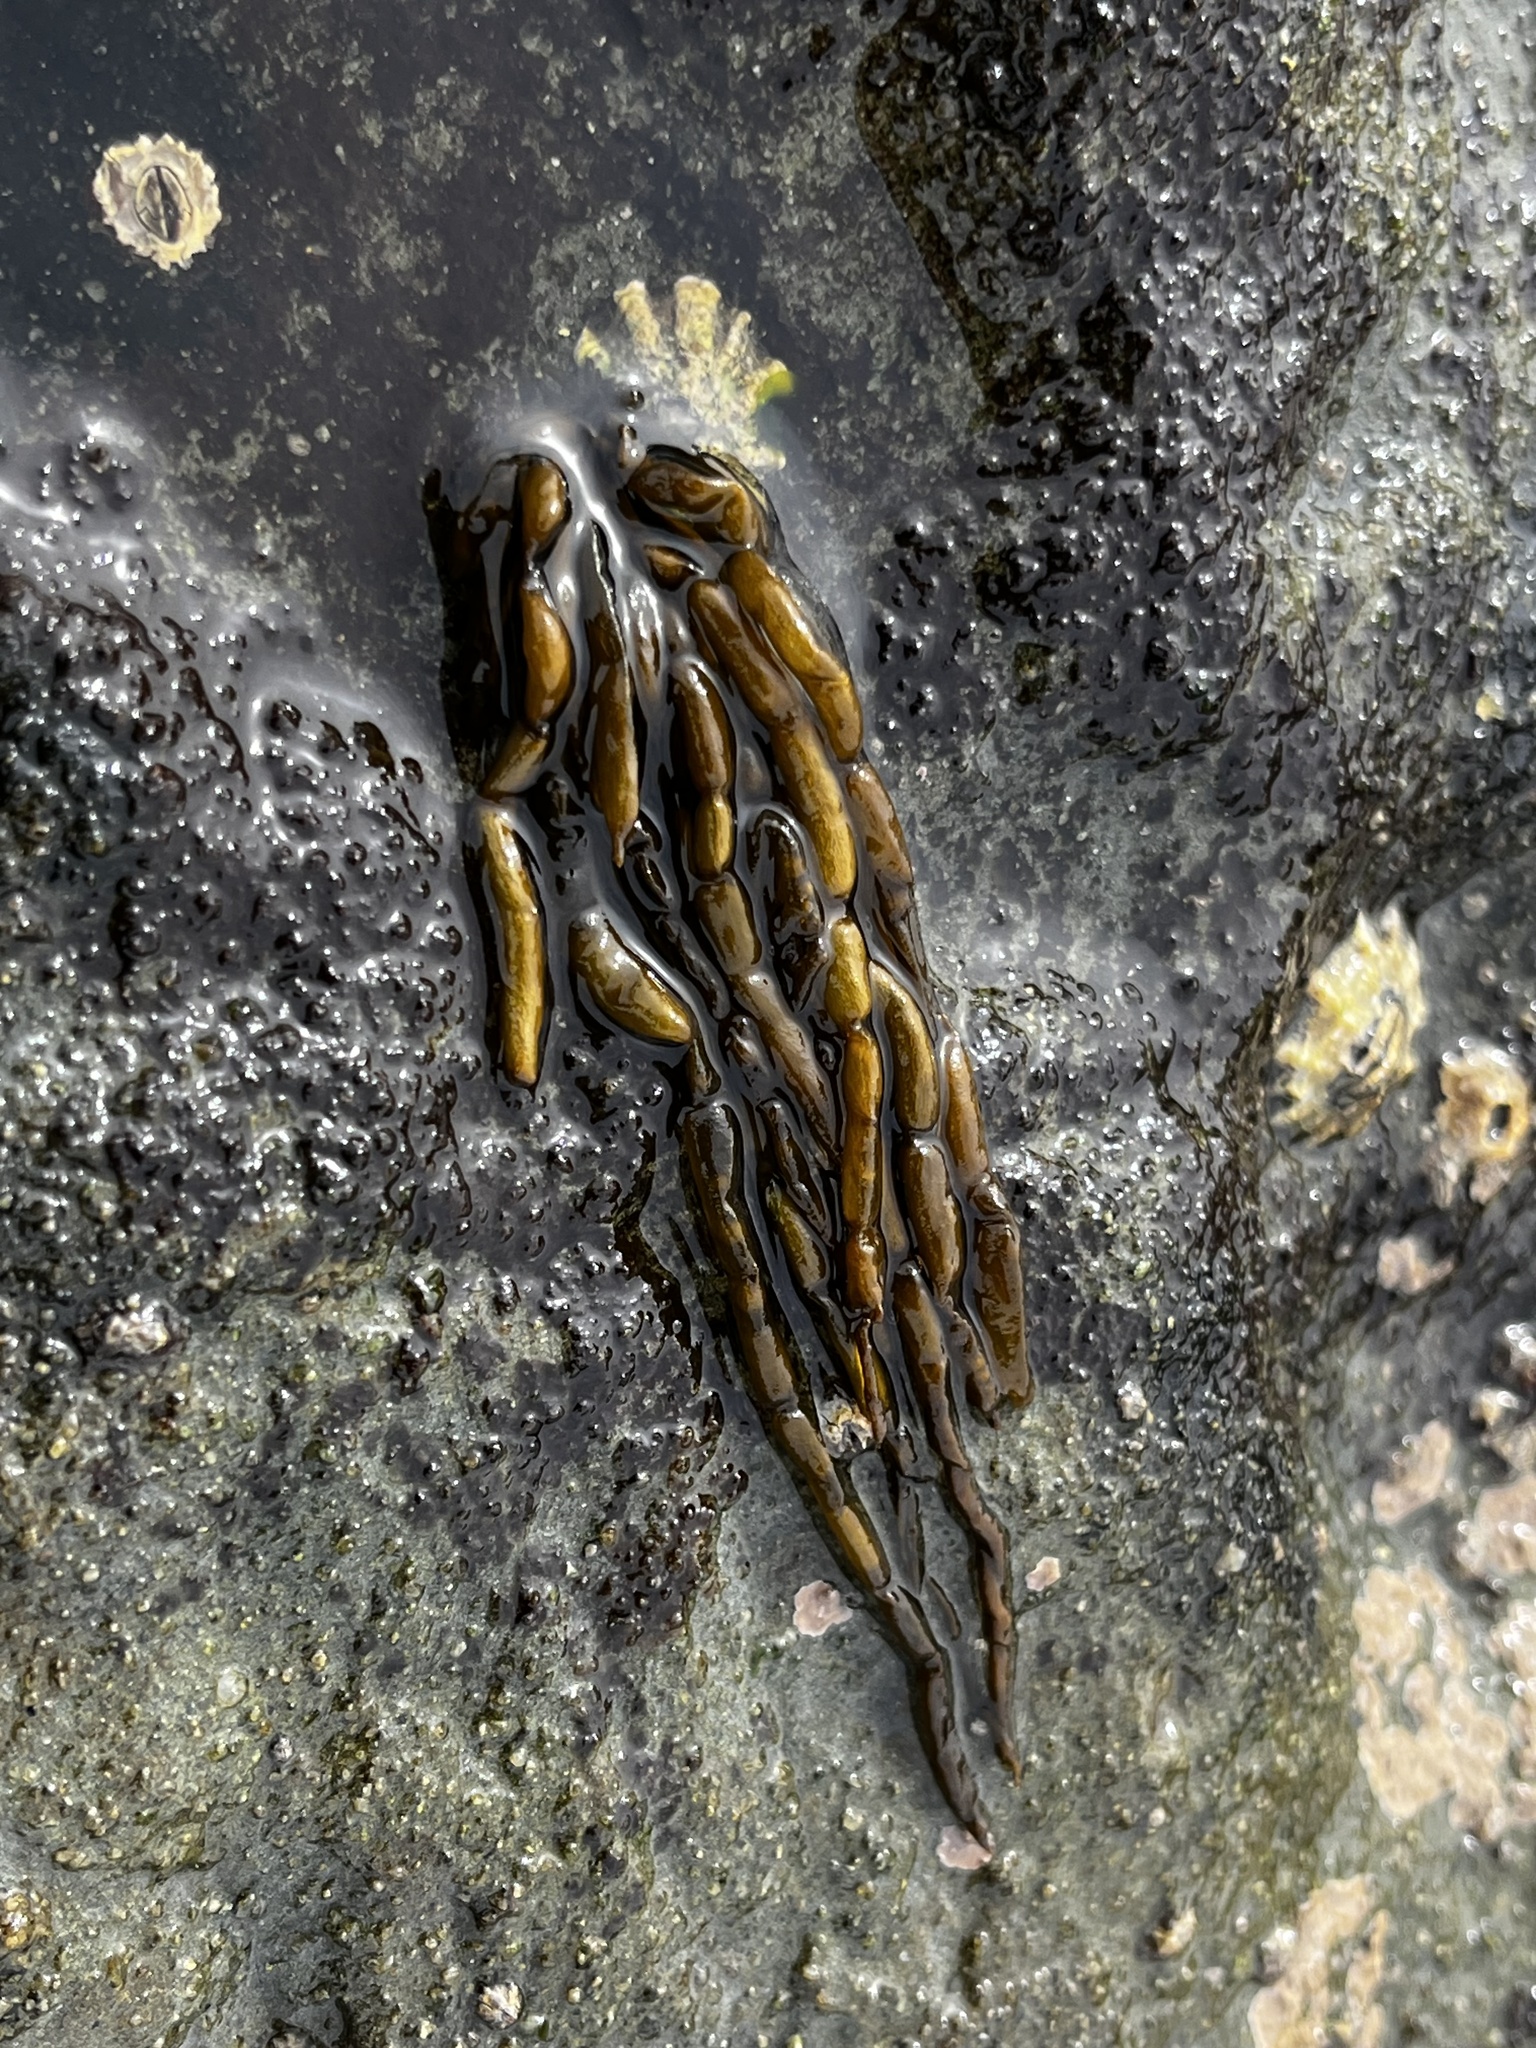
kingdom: Chromista
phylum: Ochrophyta
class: Phaeophyceae
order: Scytosiphonales
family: Scytosiphonaceae
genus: Scytosiphon
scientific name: Scytosiphon lomentaria
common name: Beanweed
